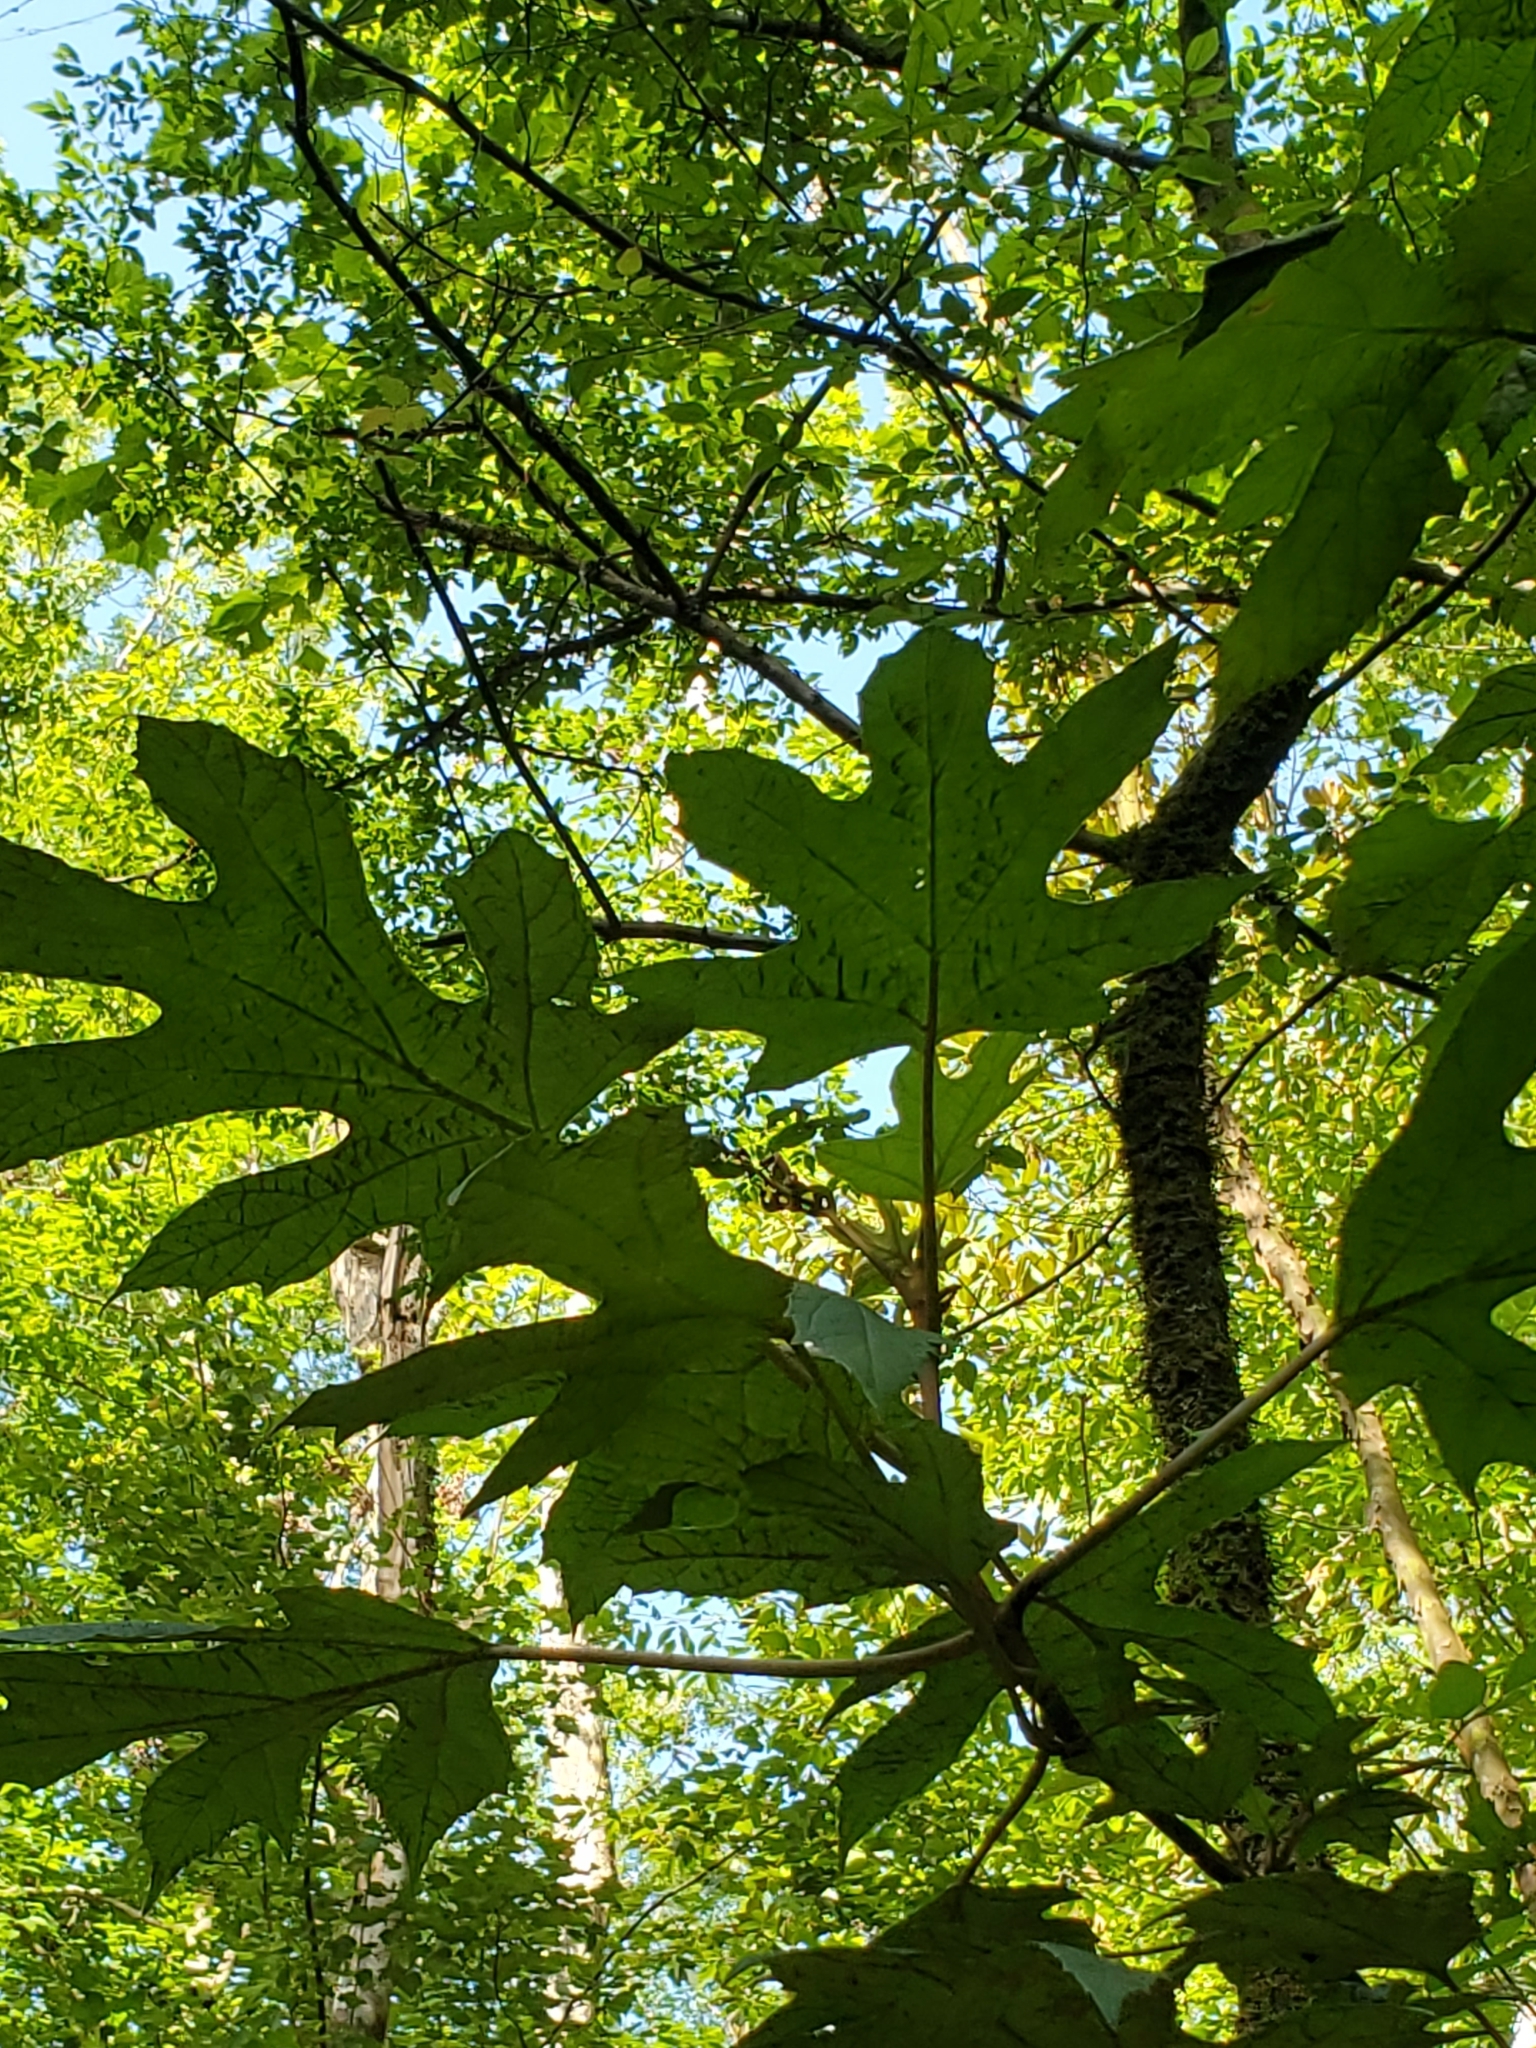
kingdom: Plantae
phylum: Tracheophyta
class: Magnoliopsida
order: Cornales
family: Hydrangeaceae
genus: Hydrangea
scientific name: Hydrangea quercifolia
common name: Oak-leaf hydrangea
